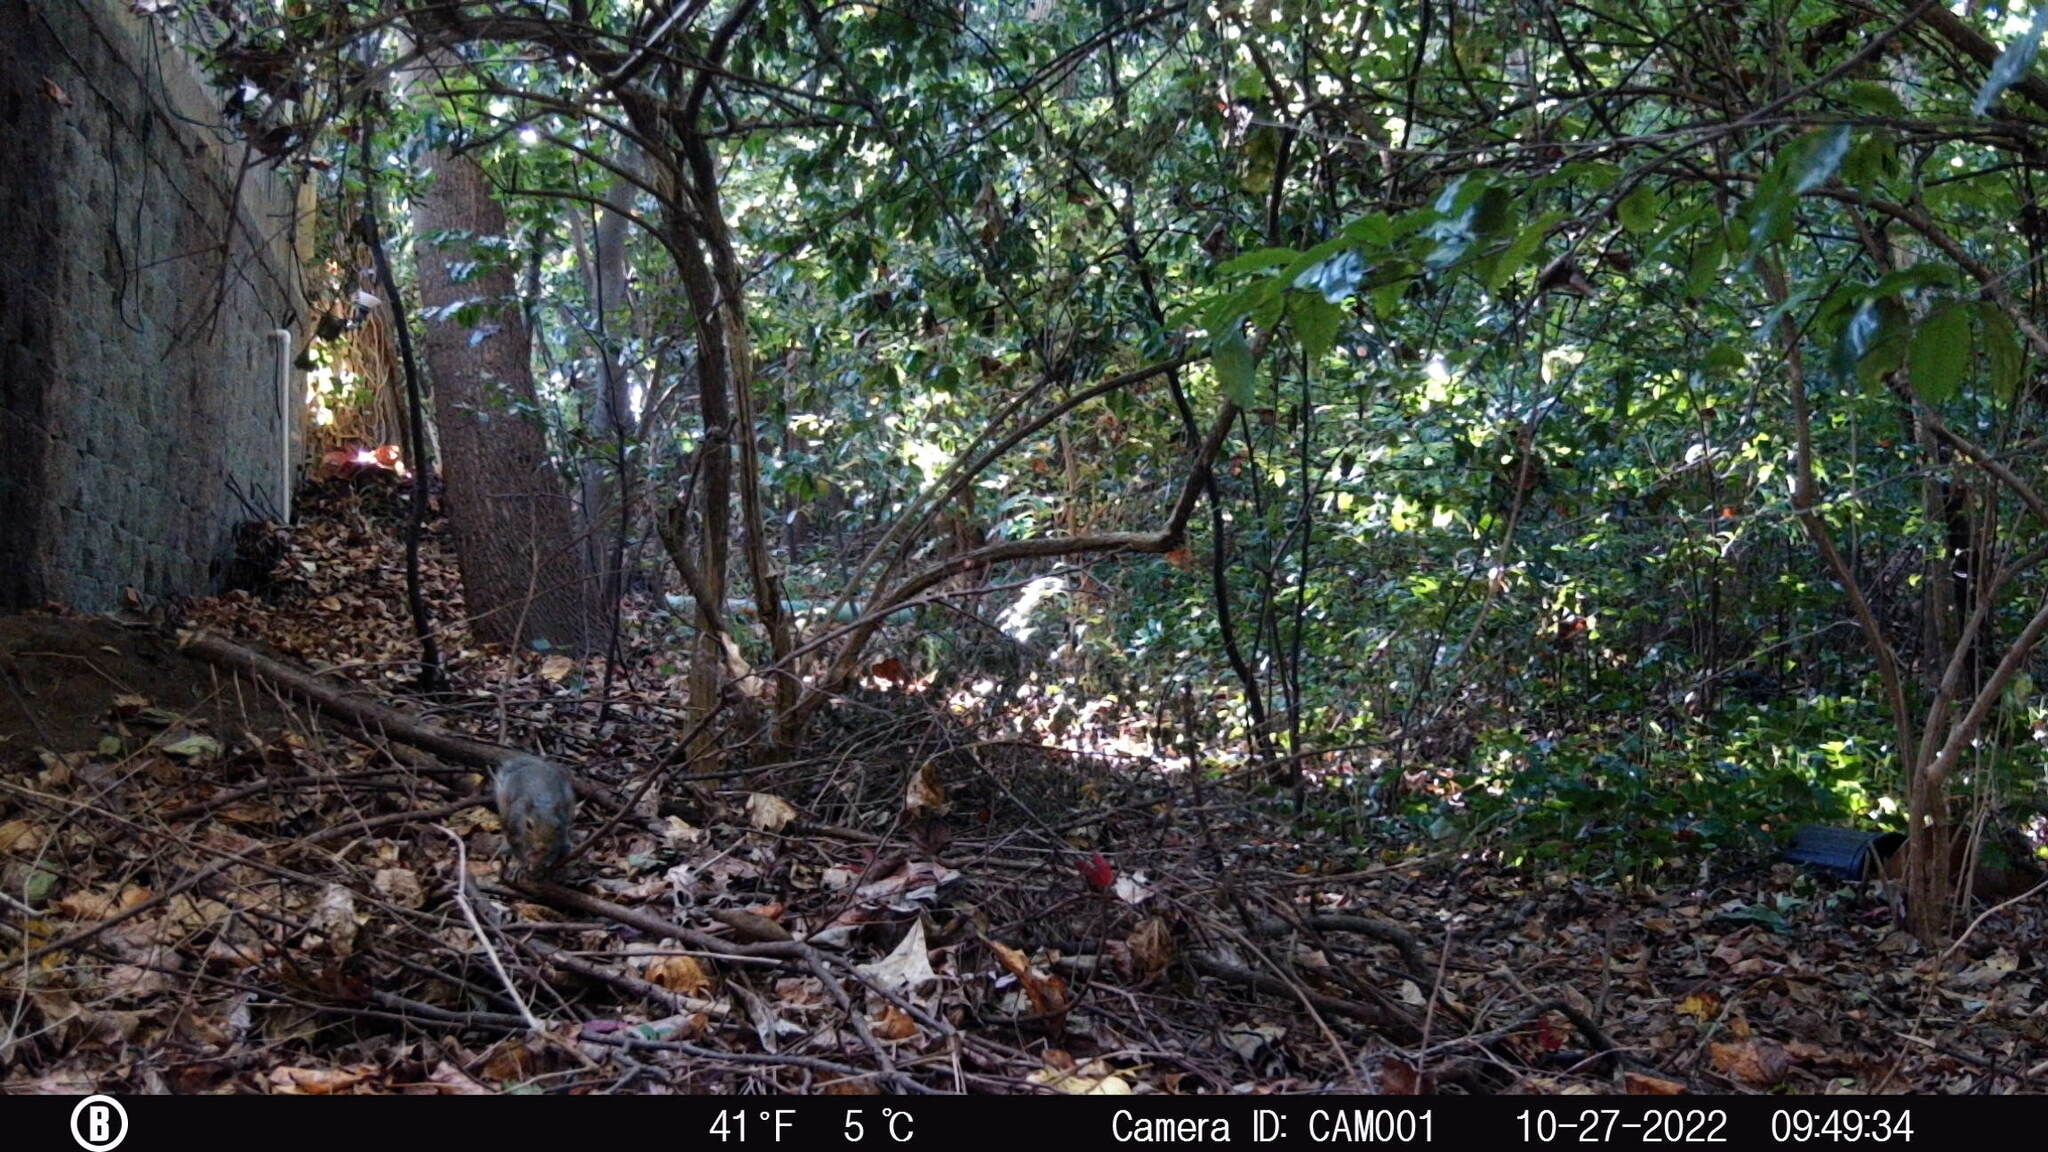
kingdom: Animalia
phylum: Chordata
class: Mammalia
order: Rodentia
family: Sciuridae
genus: Sciurus
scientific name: Sciurus carolinensis
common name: Eastern gray squirrel
